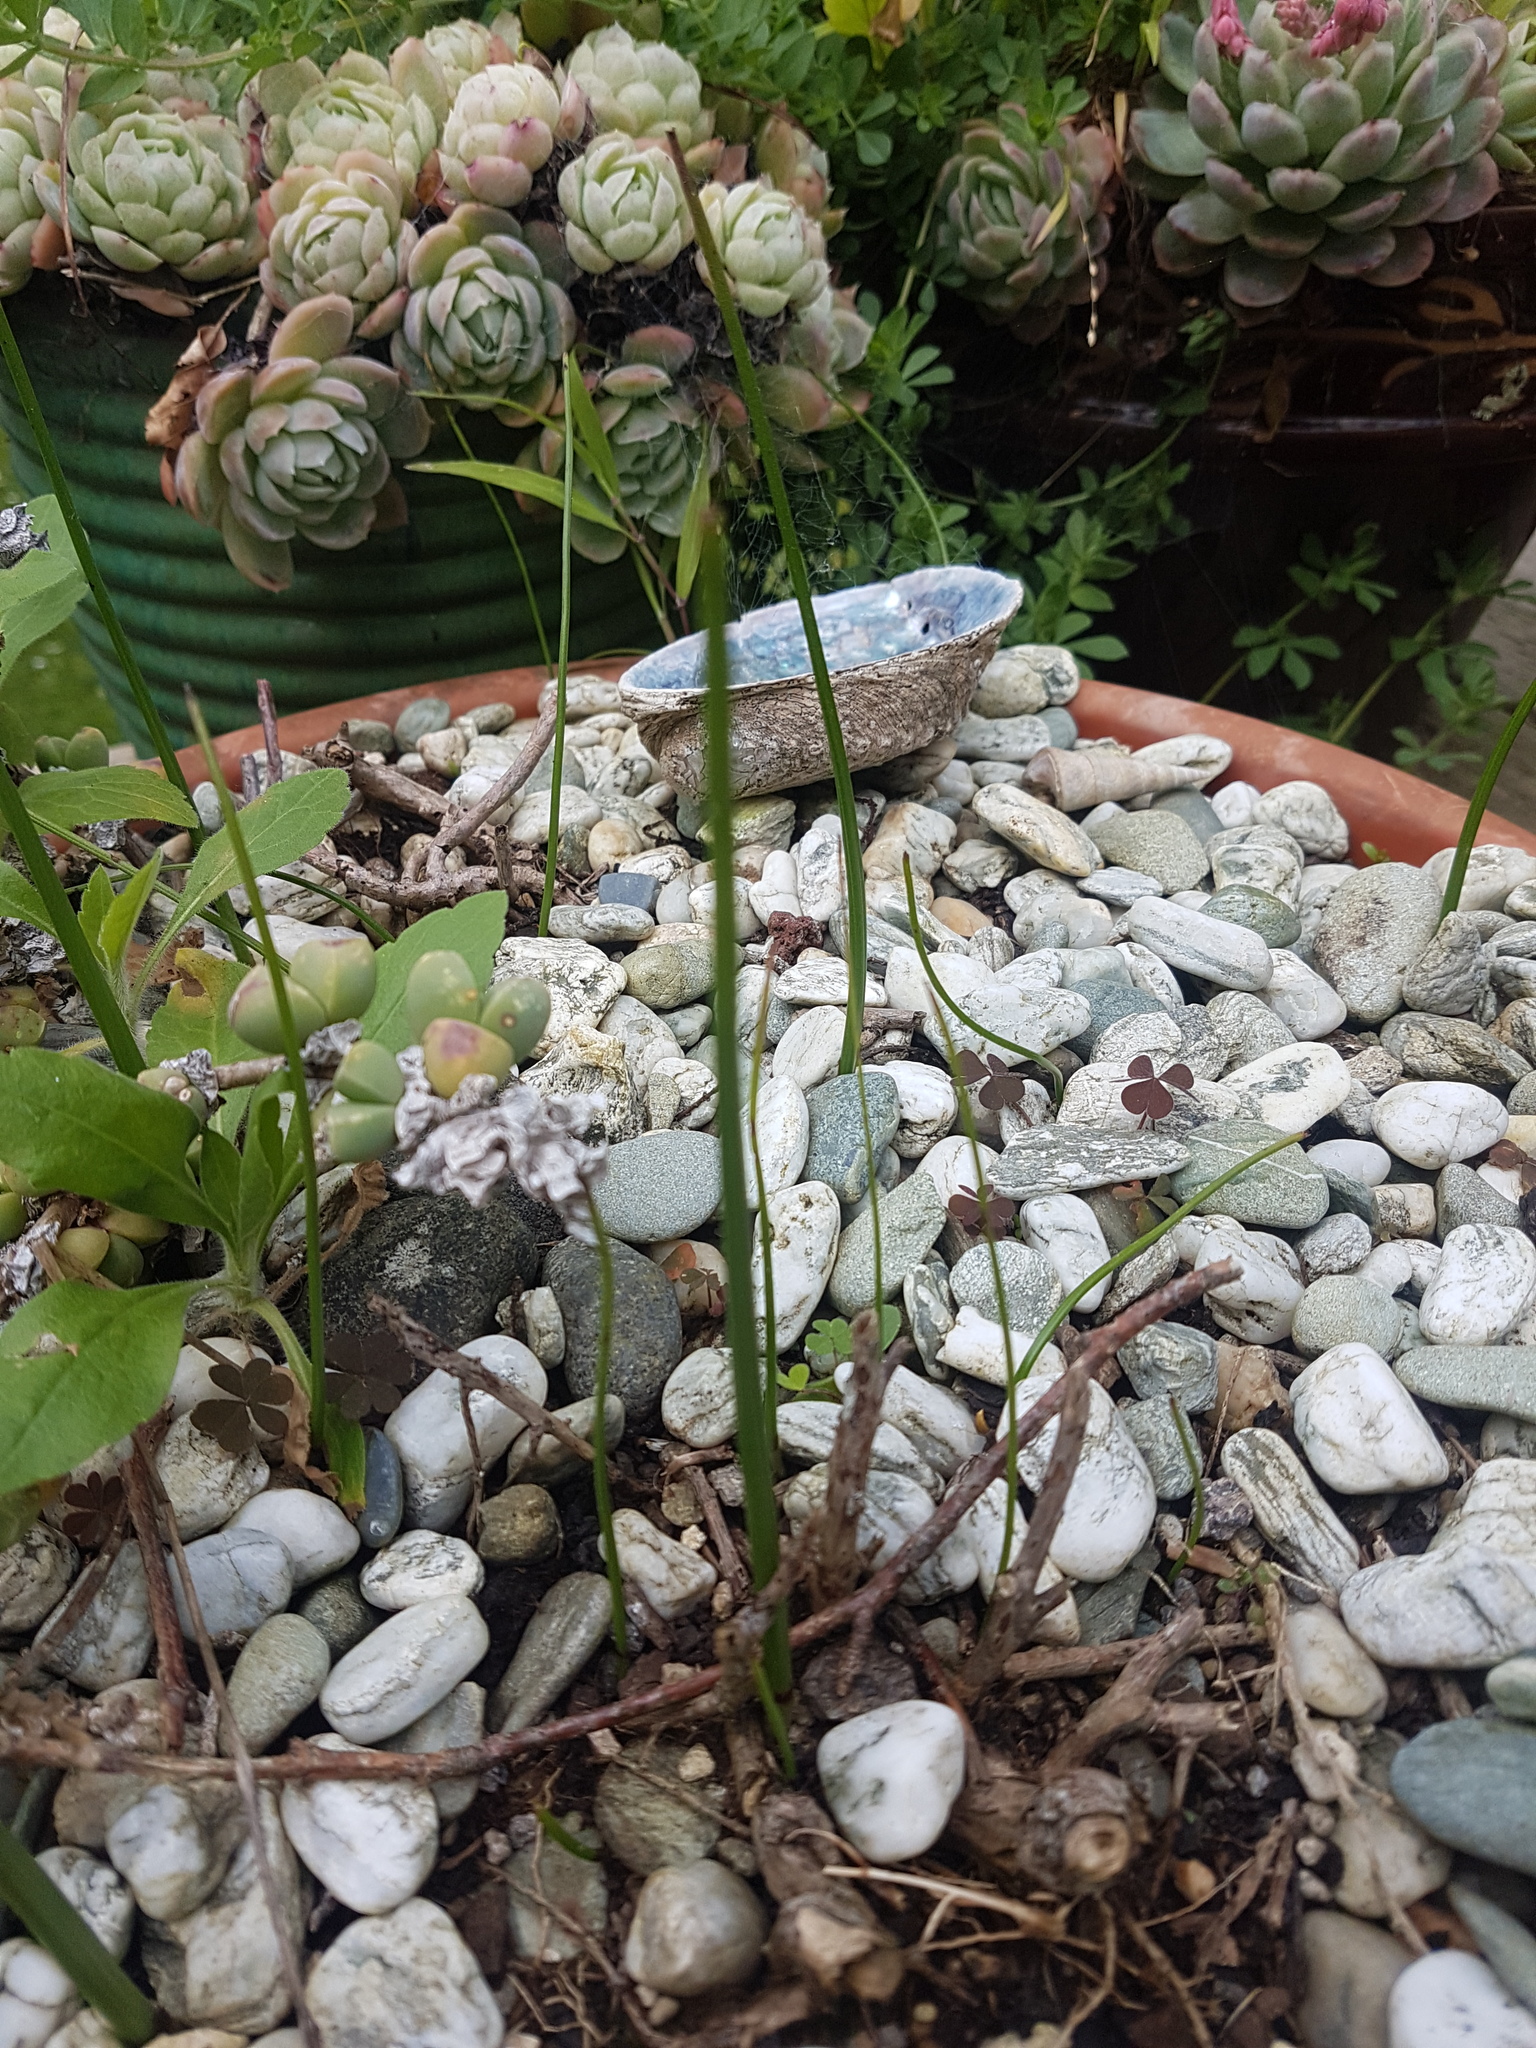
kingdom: Plantae
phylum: Tracheophyta
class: Liliopsida
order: Asparagales
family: Orchidaceae
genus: Microtis
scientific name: Microtis unifolia
